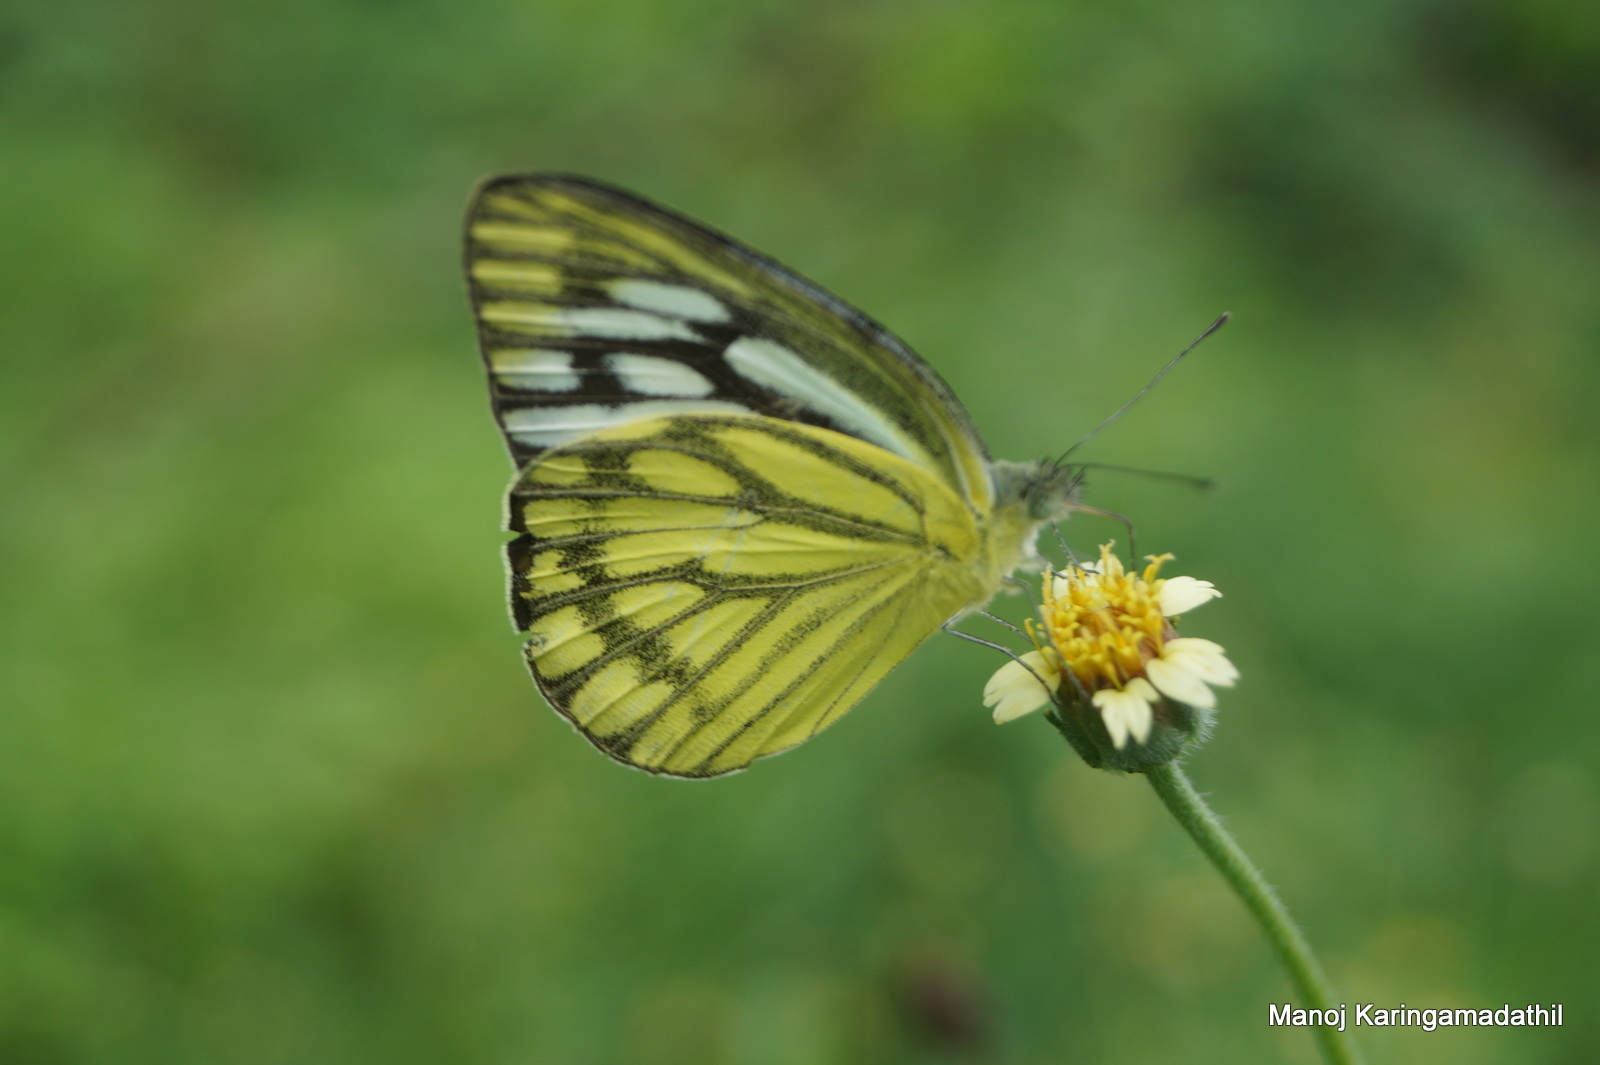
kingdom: Animalia
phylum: Arthropoda
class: Insecta
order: Lepidoptera
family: Pieridae
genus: Cepora
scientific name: Cepora nerissa
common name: Common gull
